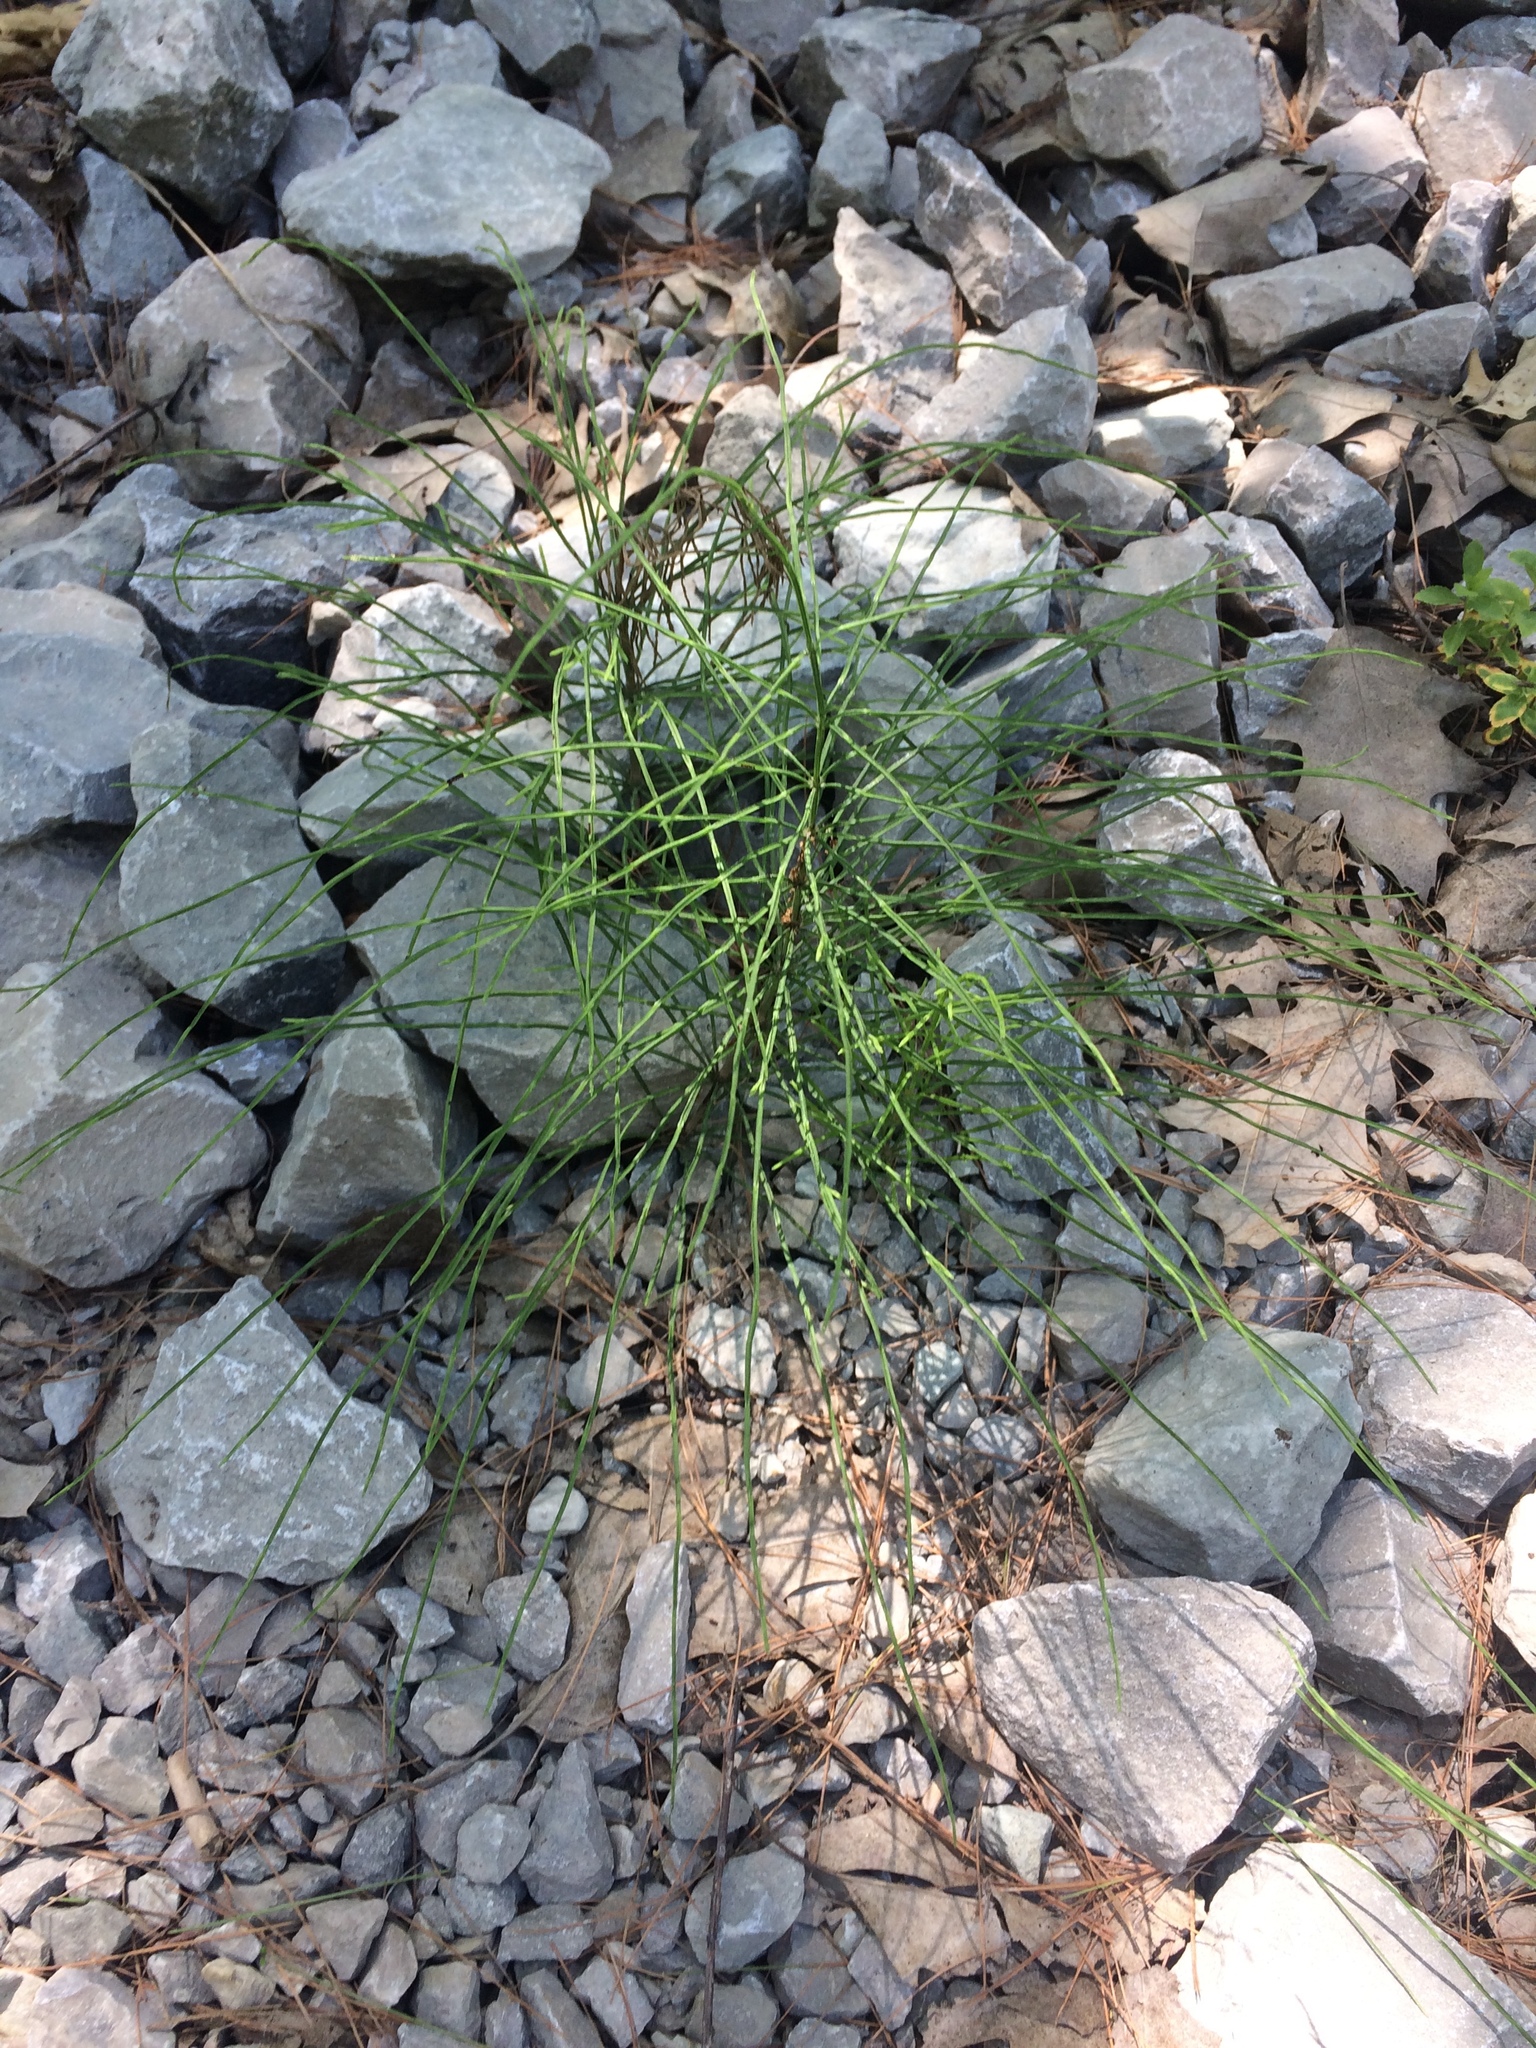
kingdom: Plantae
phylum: Tracheophyta
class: Polypodiopsida
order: Equisetales
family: Equisetaceae
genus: Equisetum
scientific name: Equisetum arvense
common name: Field horsetail
